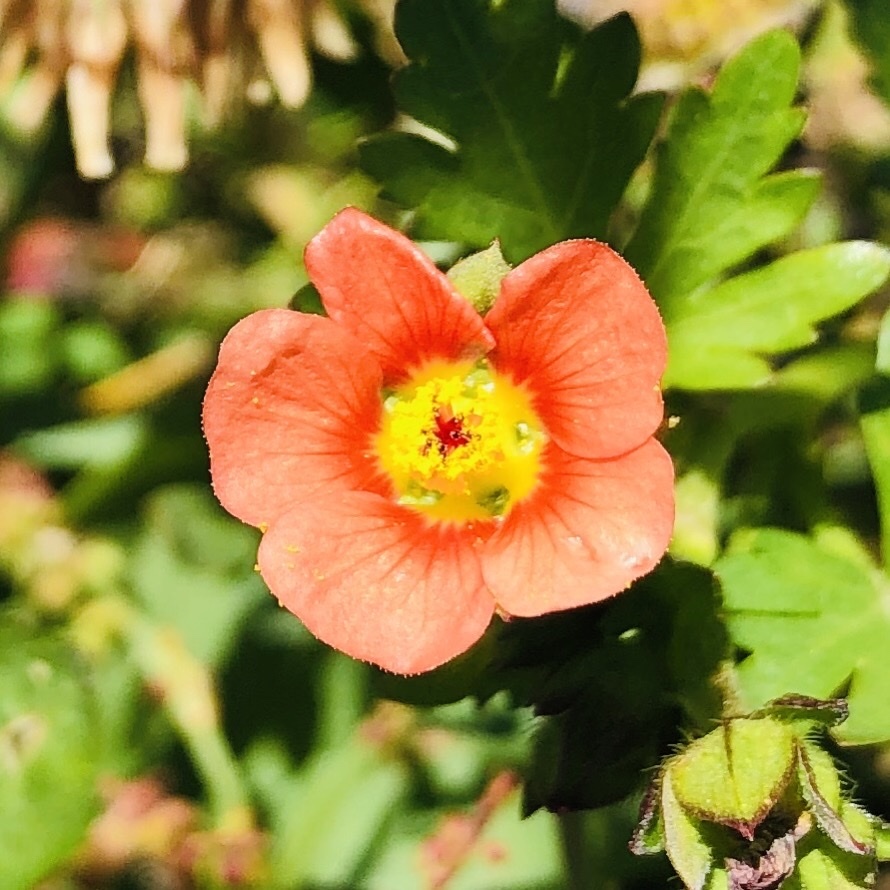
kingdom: Plantae
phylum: Tracheophyta
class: Magnoliopsida
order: Malvales
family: Malvaceae
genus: Modiola
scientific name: Modiola caroliniana
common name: Carolina bristlemallow
